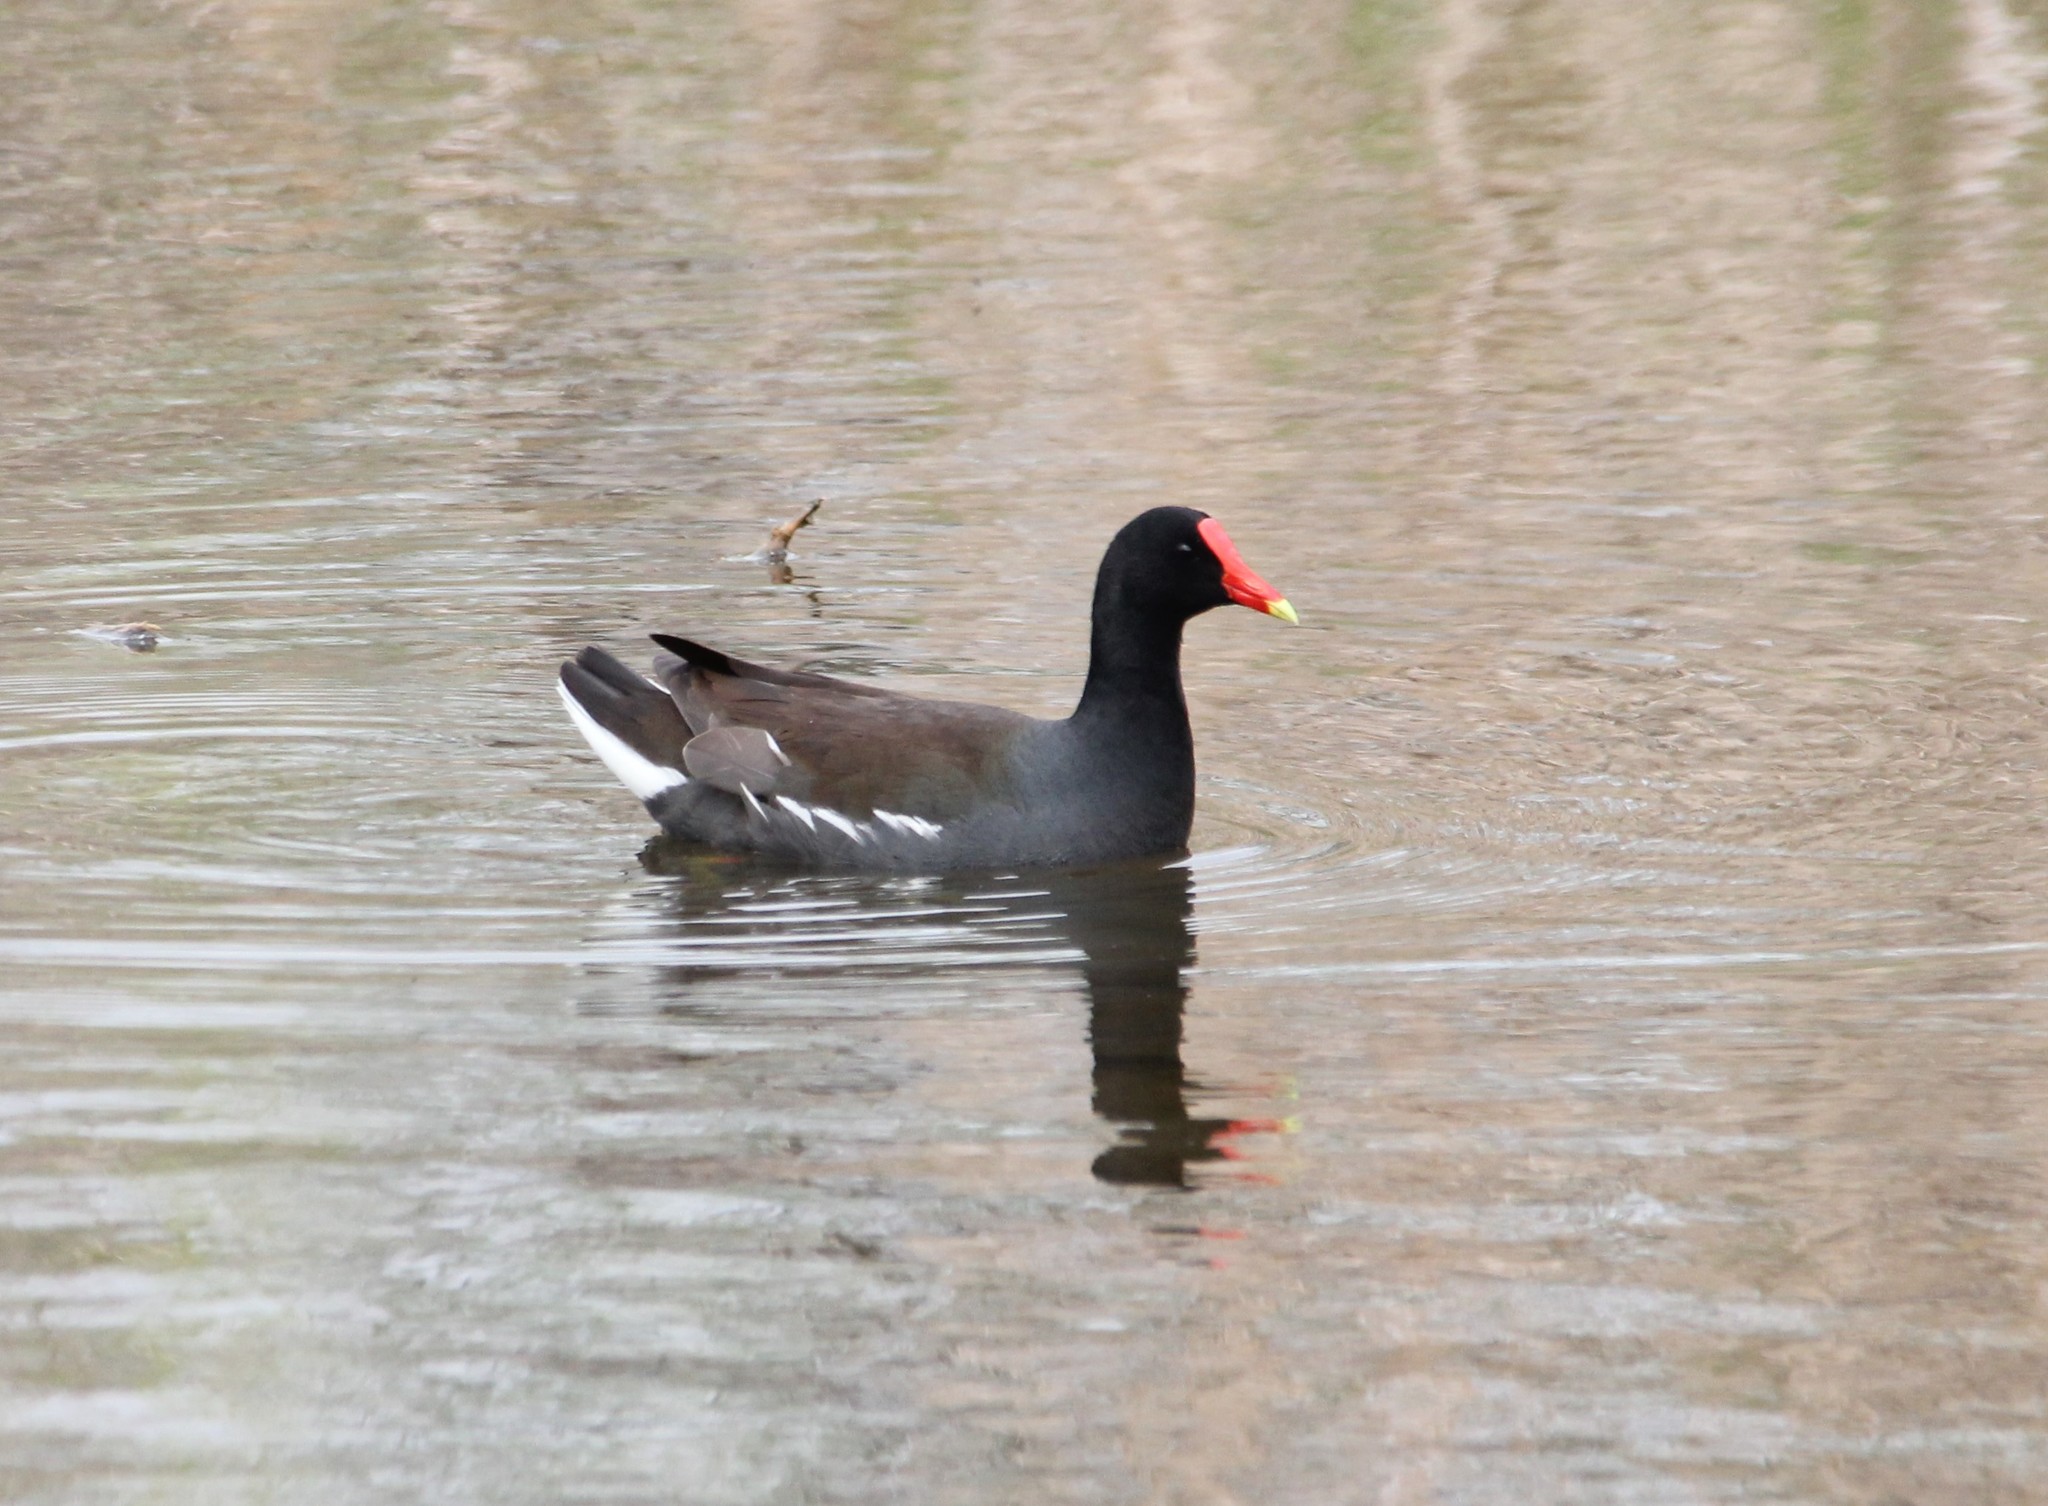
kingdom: Animalia
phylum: Chordata
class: Aves
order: Gruiformes
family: Rallidae
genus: Gallinula
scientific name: Gallinula chloropus
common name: Common moorhen
